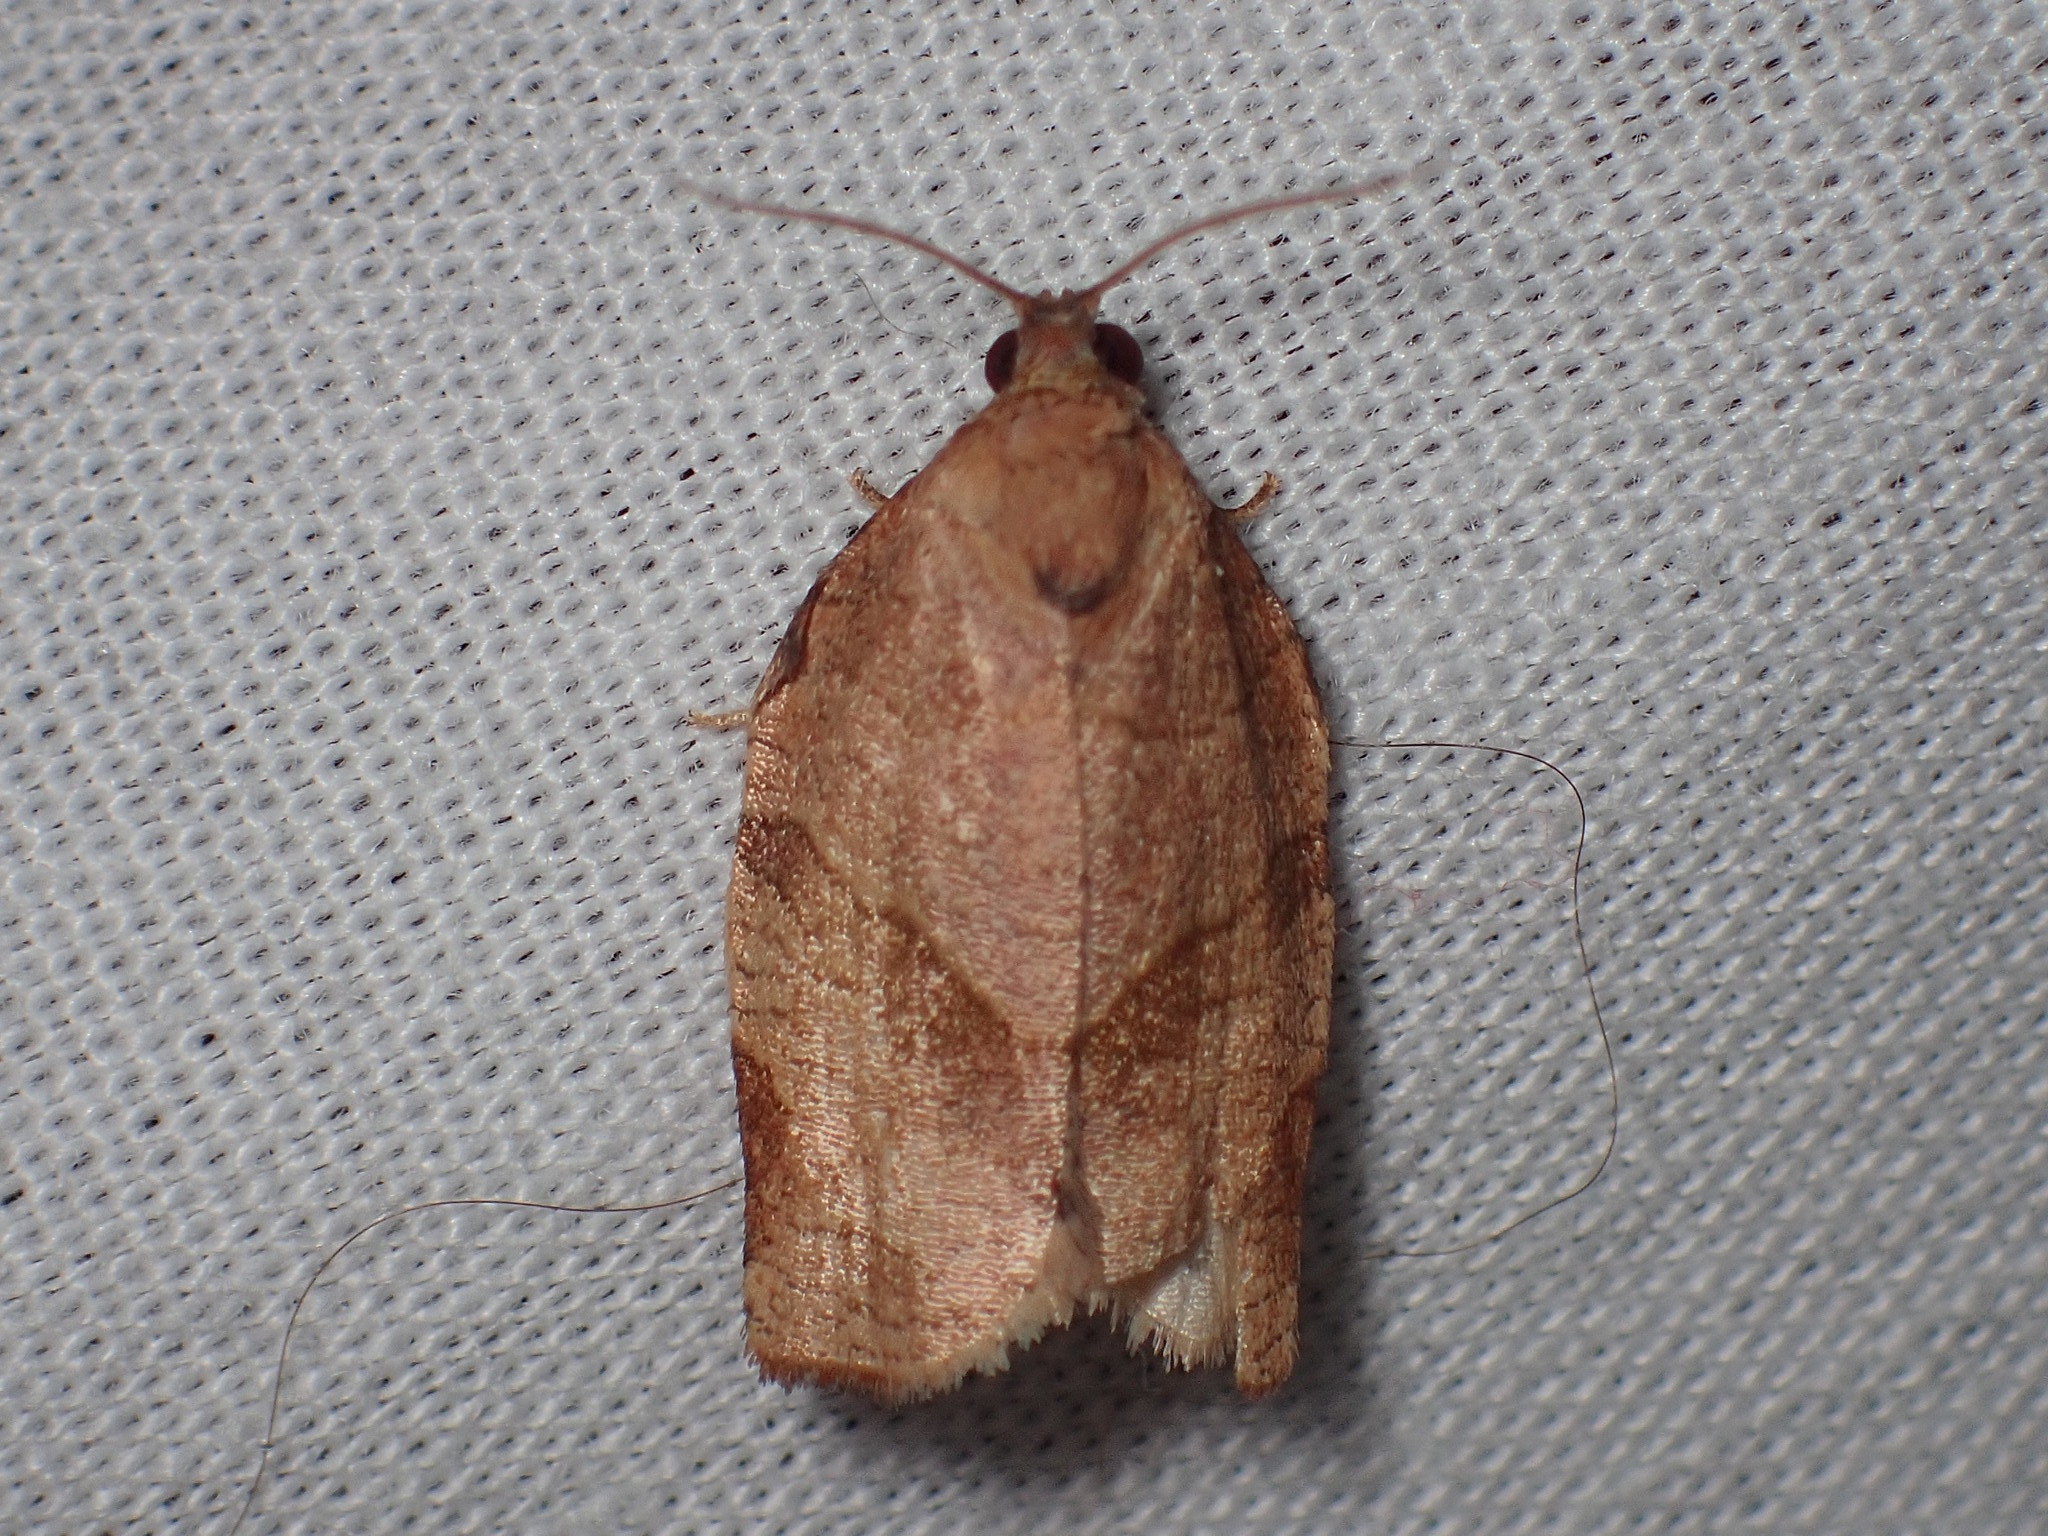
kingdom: Animalia
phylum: Arthropoda
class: Insecta
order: Lepidoptera
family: Tortricidae
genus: Choristoneura
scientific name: Choristoneura rosaceana
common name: Oblique-banded leafroller moth
